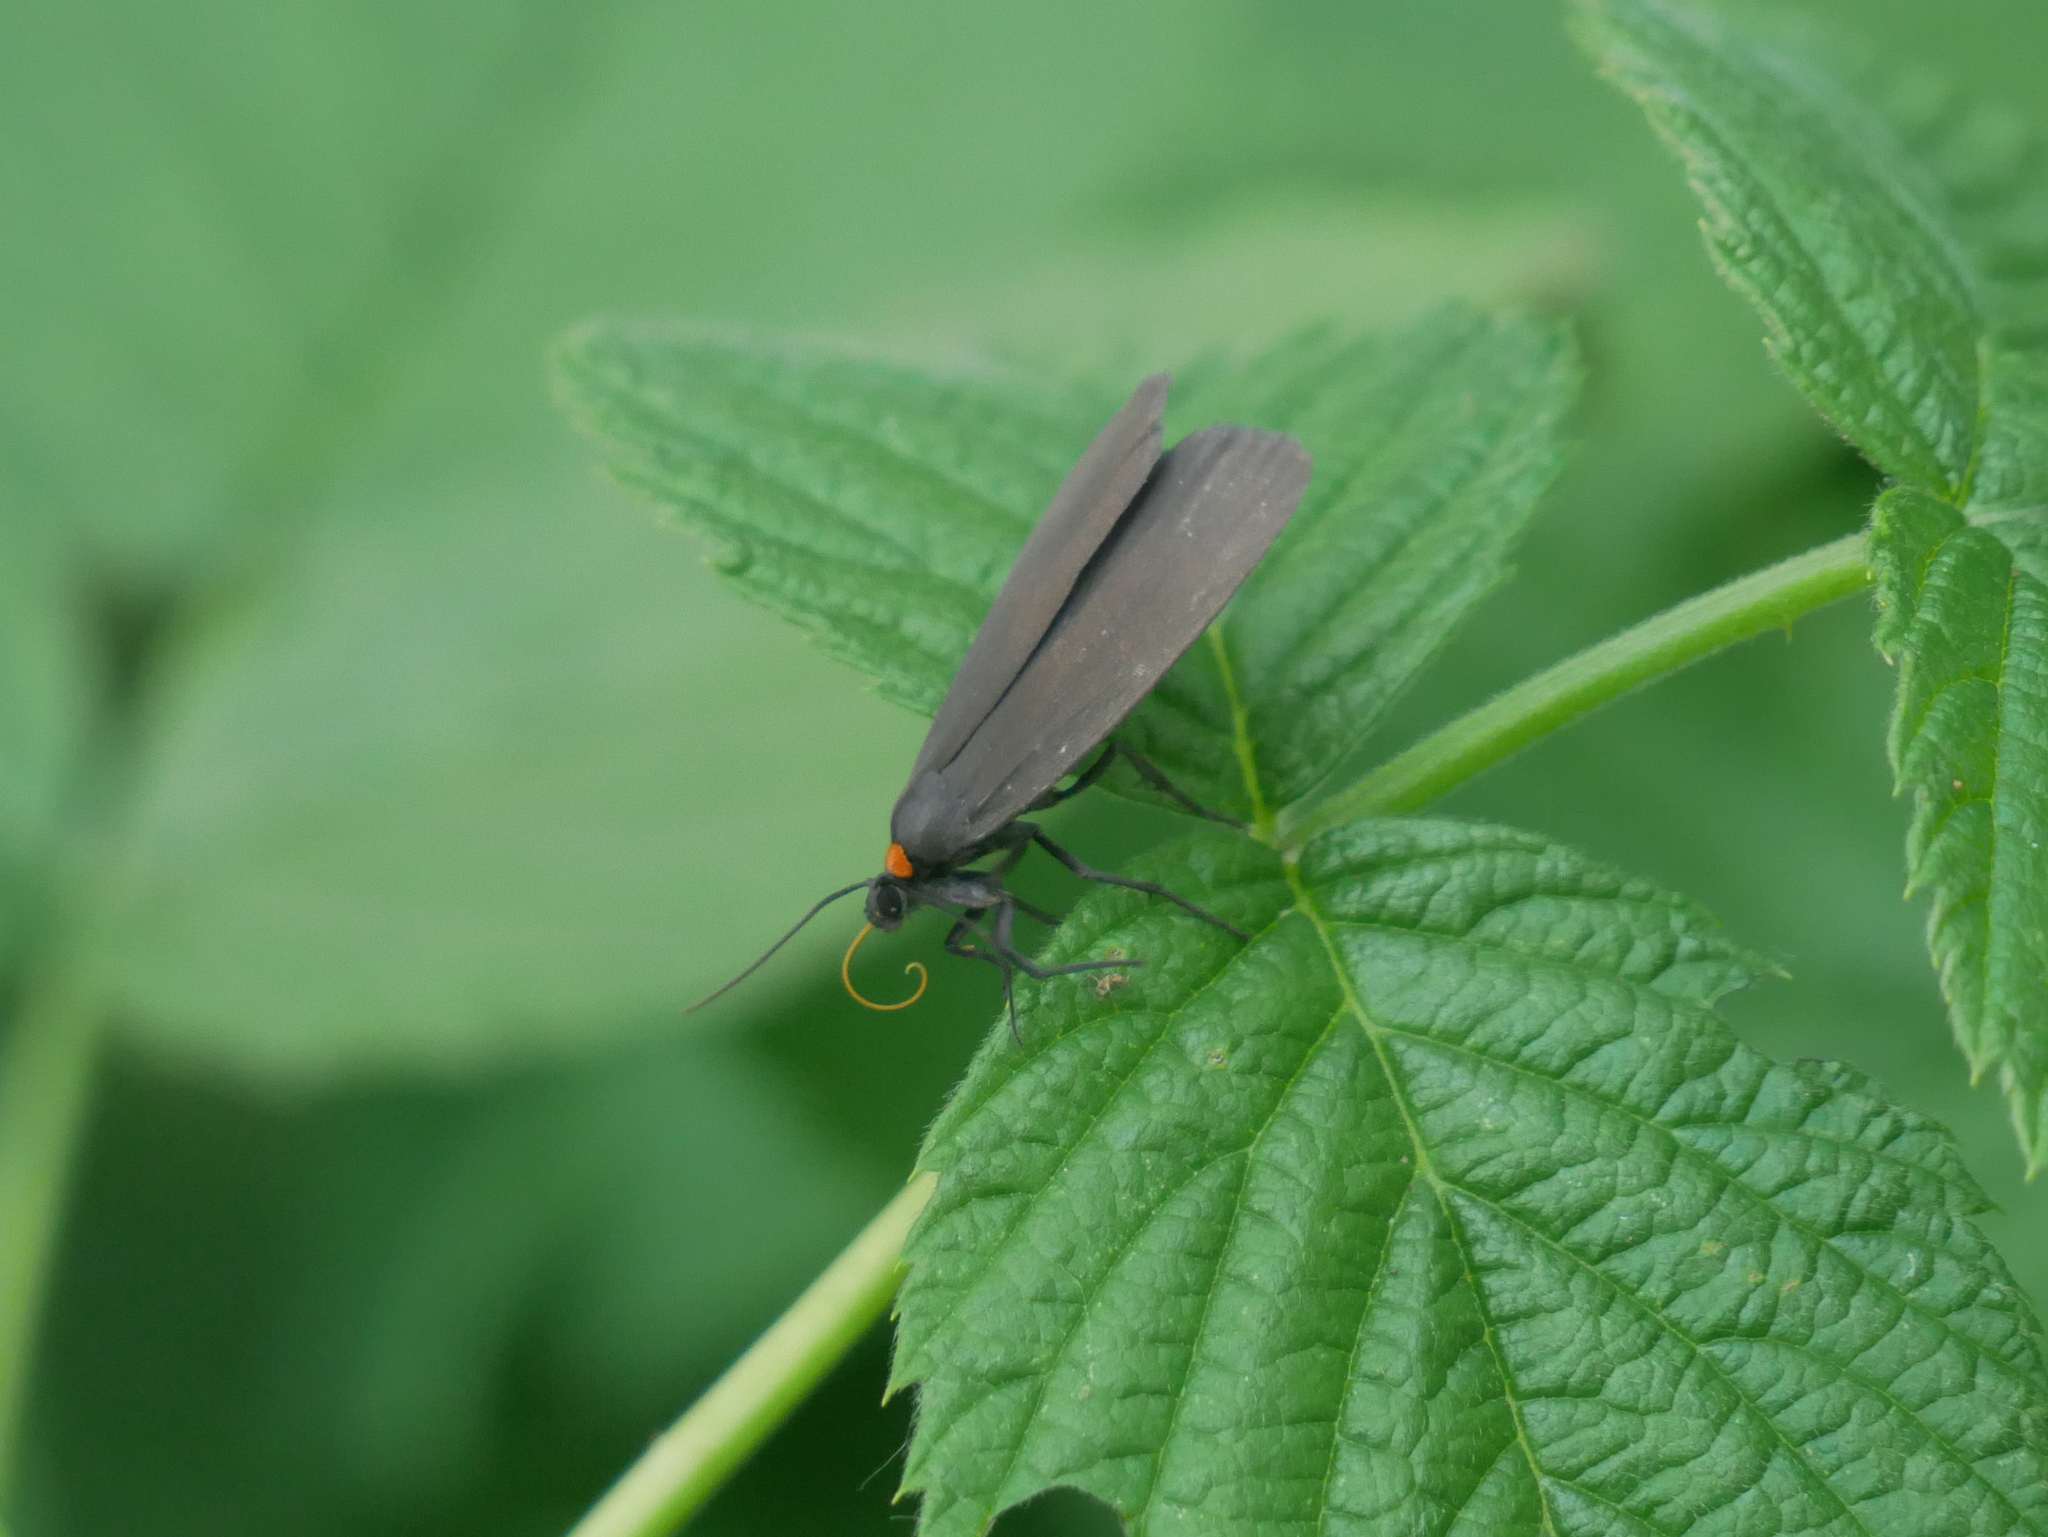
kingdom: Animalia
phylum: Arthropoda
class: Insecta
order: Lepidoptera
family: Erebidae
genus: Atolmis
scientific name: Atolmis rubricollis
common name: Red-necked footman
